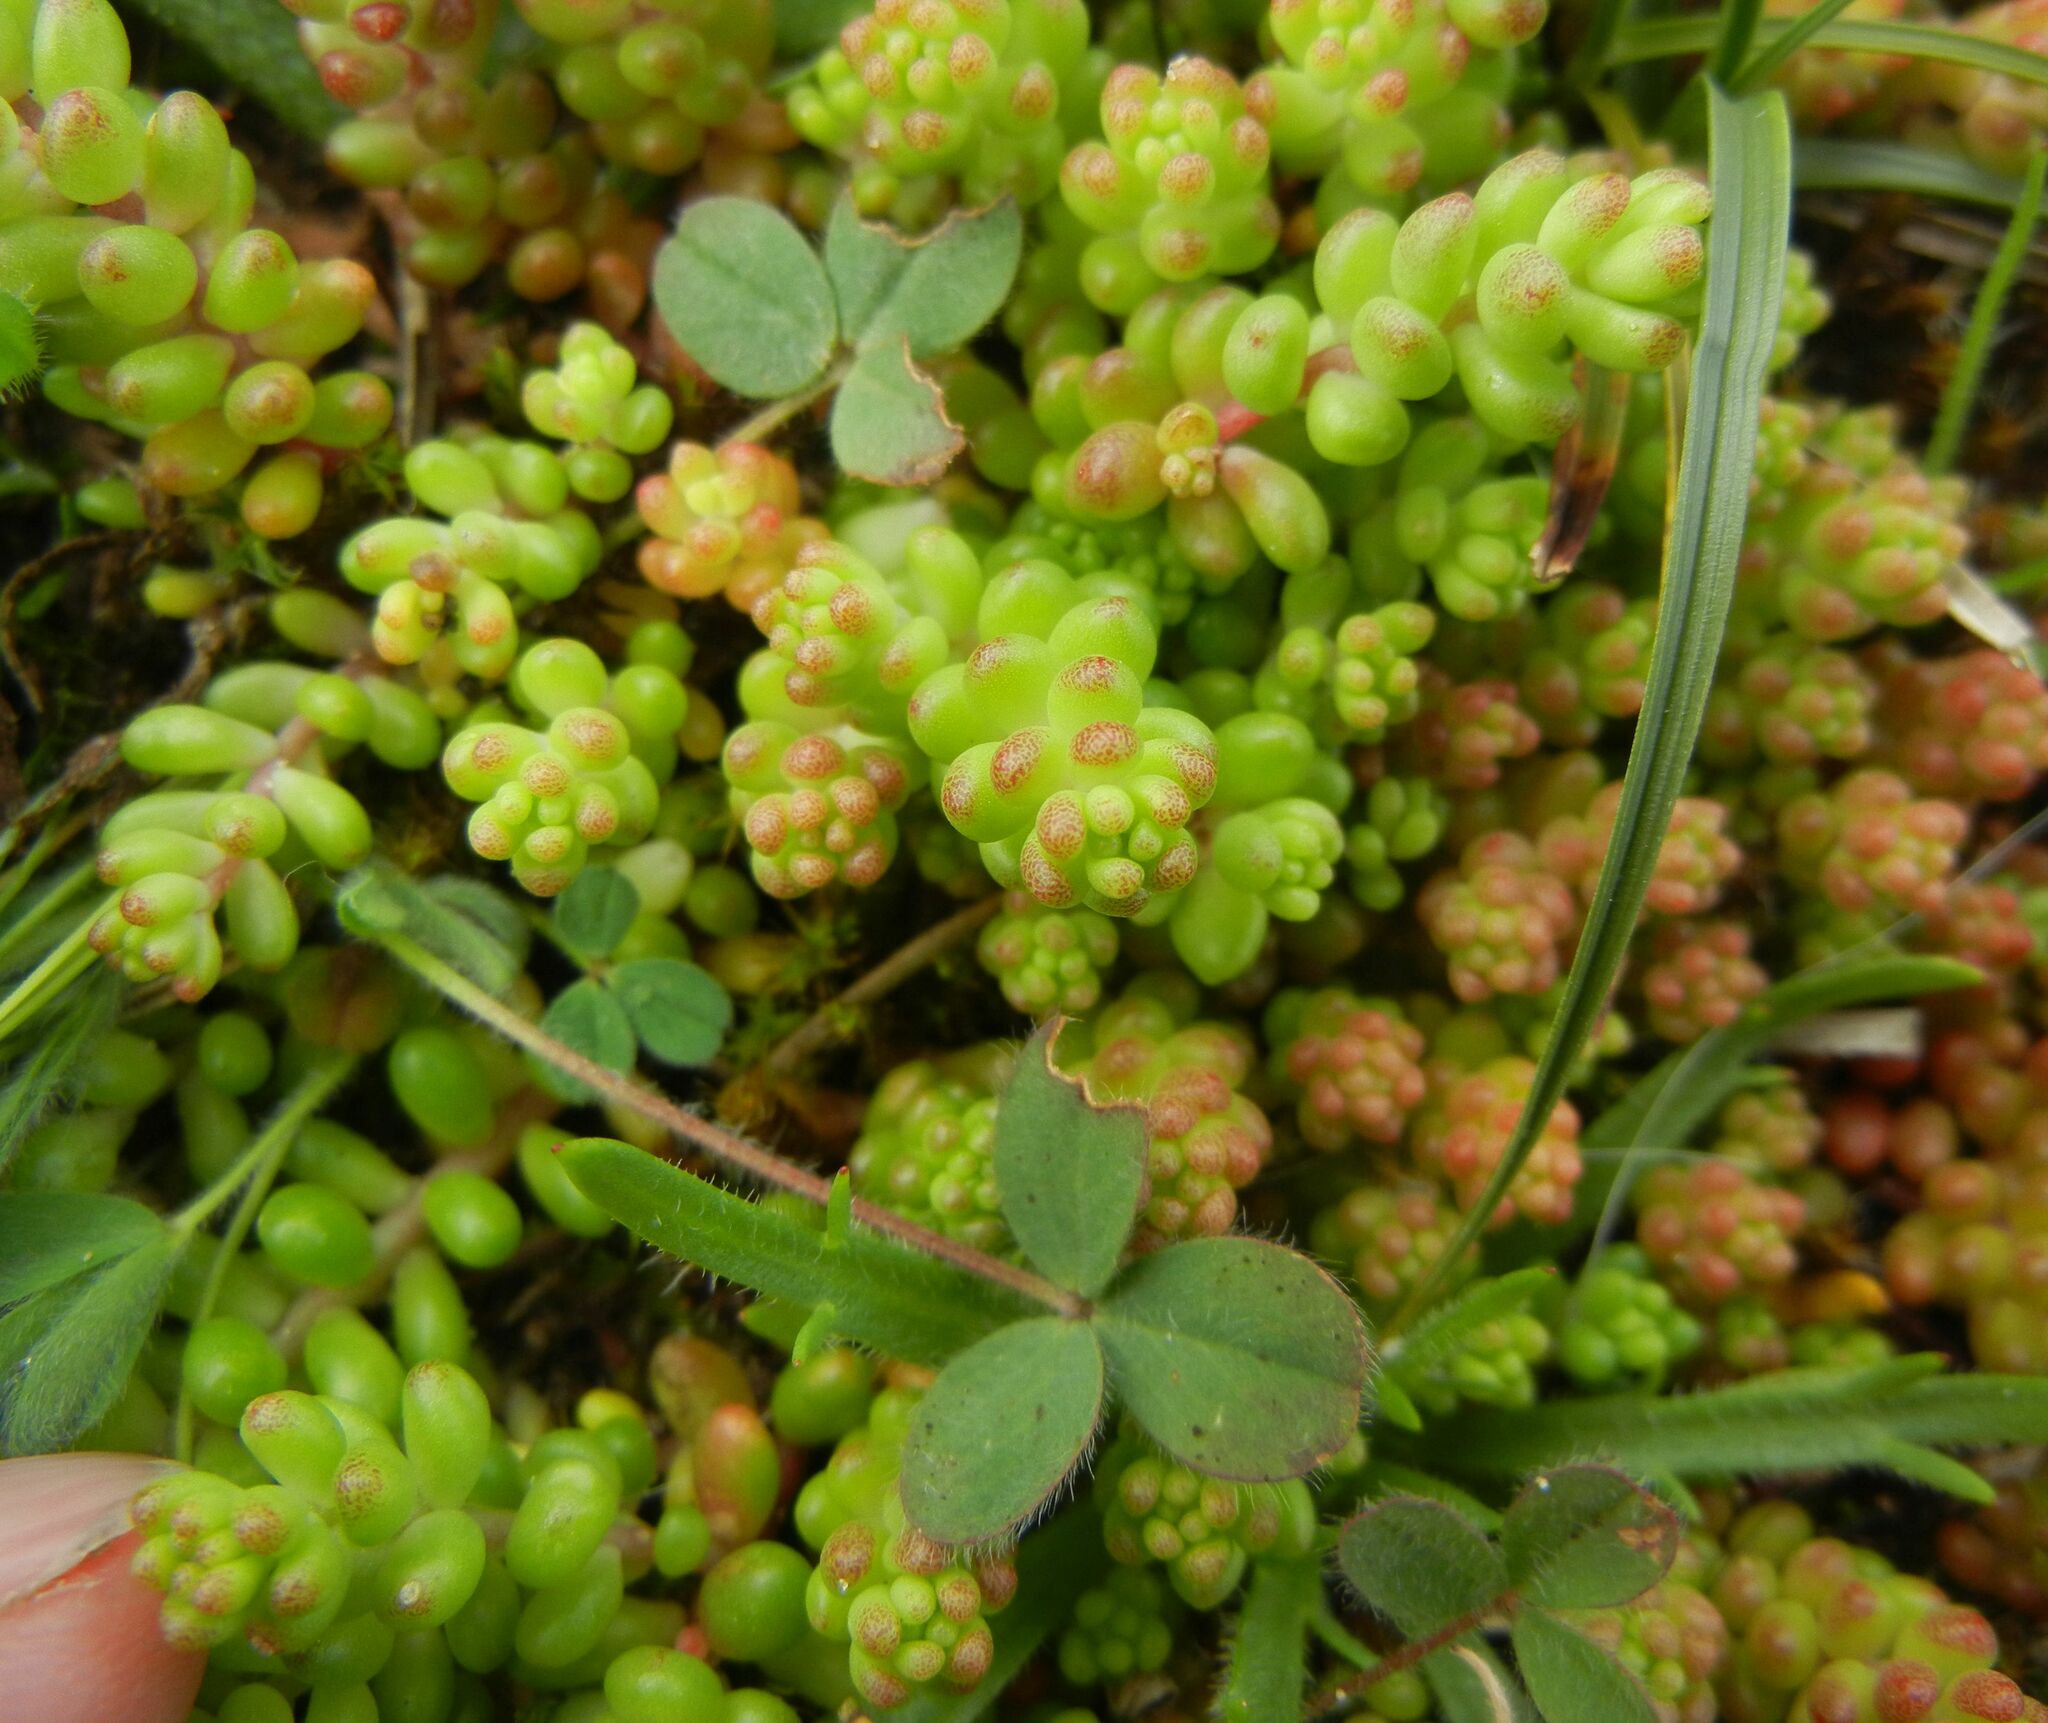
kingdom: Plantae
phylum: Tracheophyta
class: Magnoliopsida
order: Saxifragales
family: Crassulaceae
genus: Sedum
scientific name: Sedum album
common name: White stonecrop
